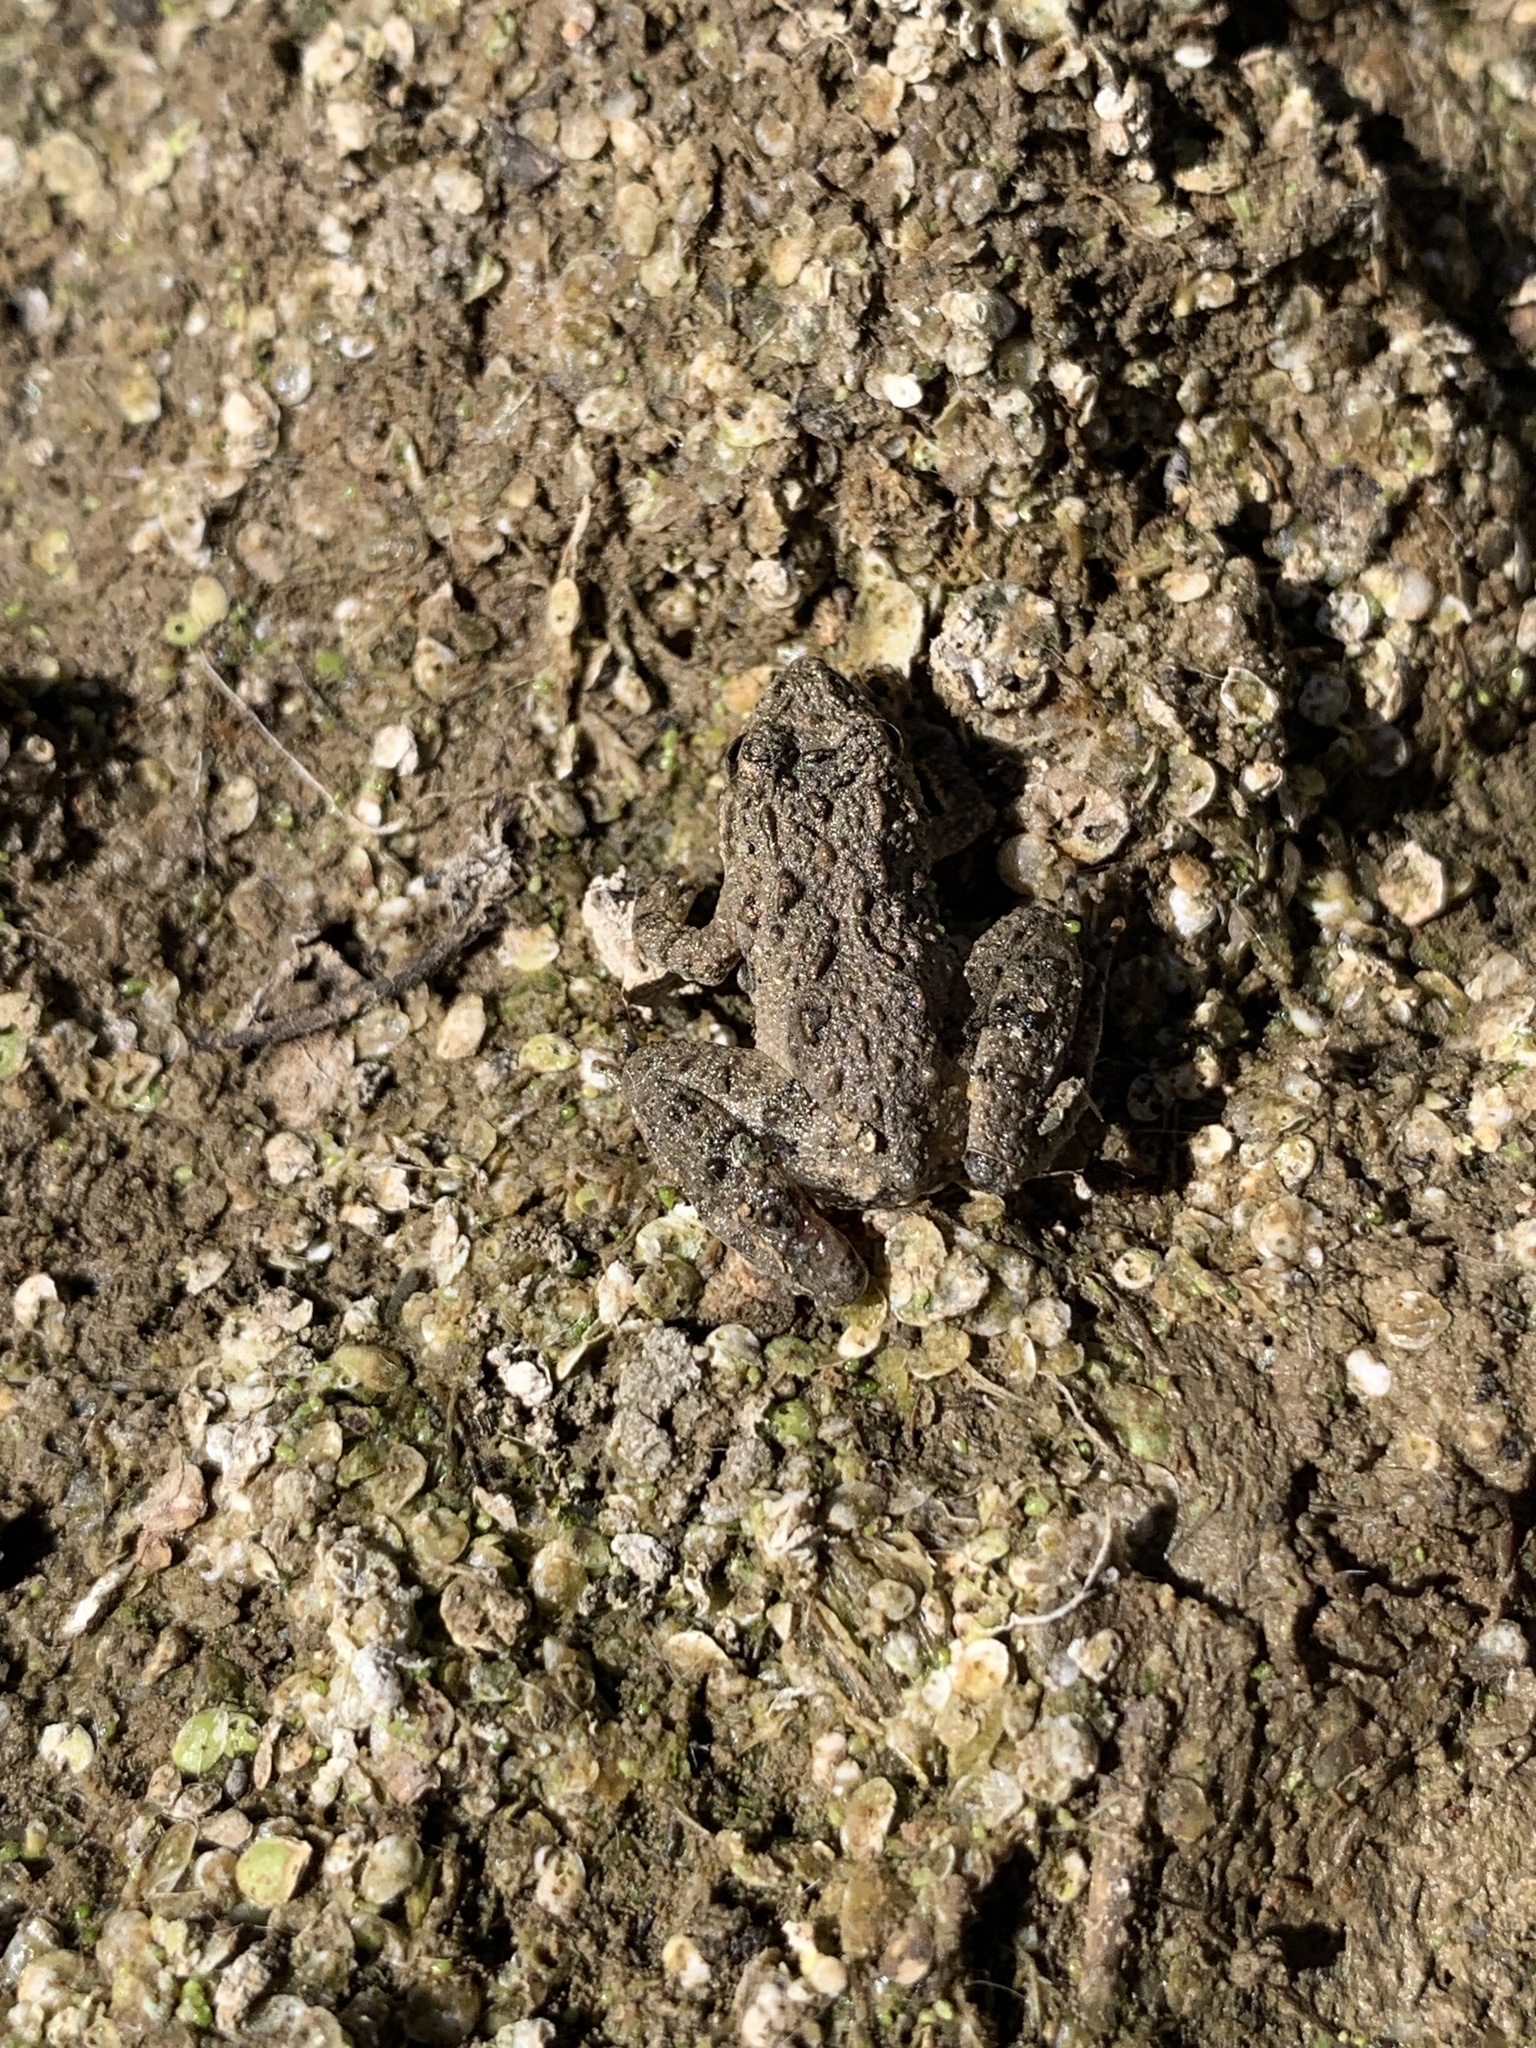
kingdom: Animalia
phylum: Chordata
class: Amphibia
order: Anura
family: Hylidae
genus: Acris
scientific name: Acris blanchardi
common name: Blanchard's cricket frog
